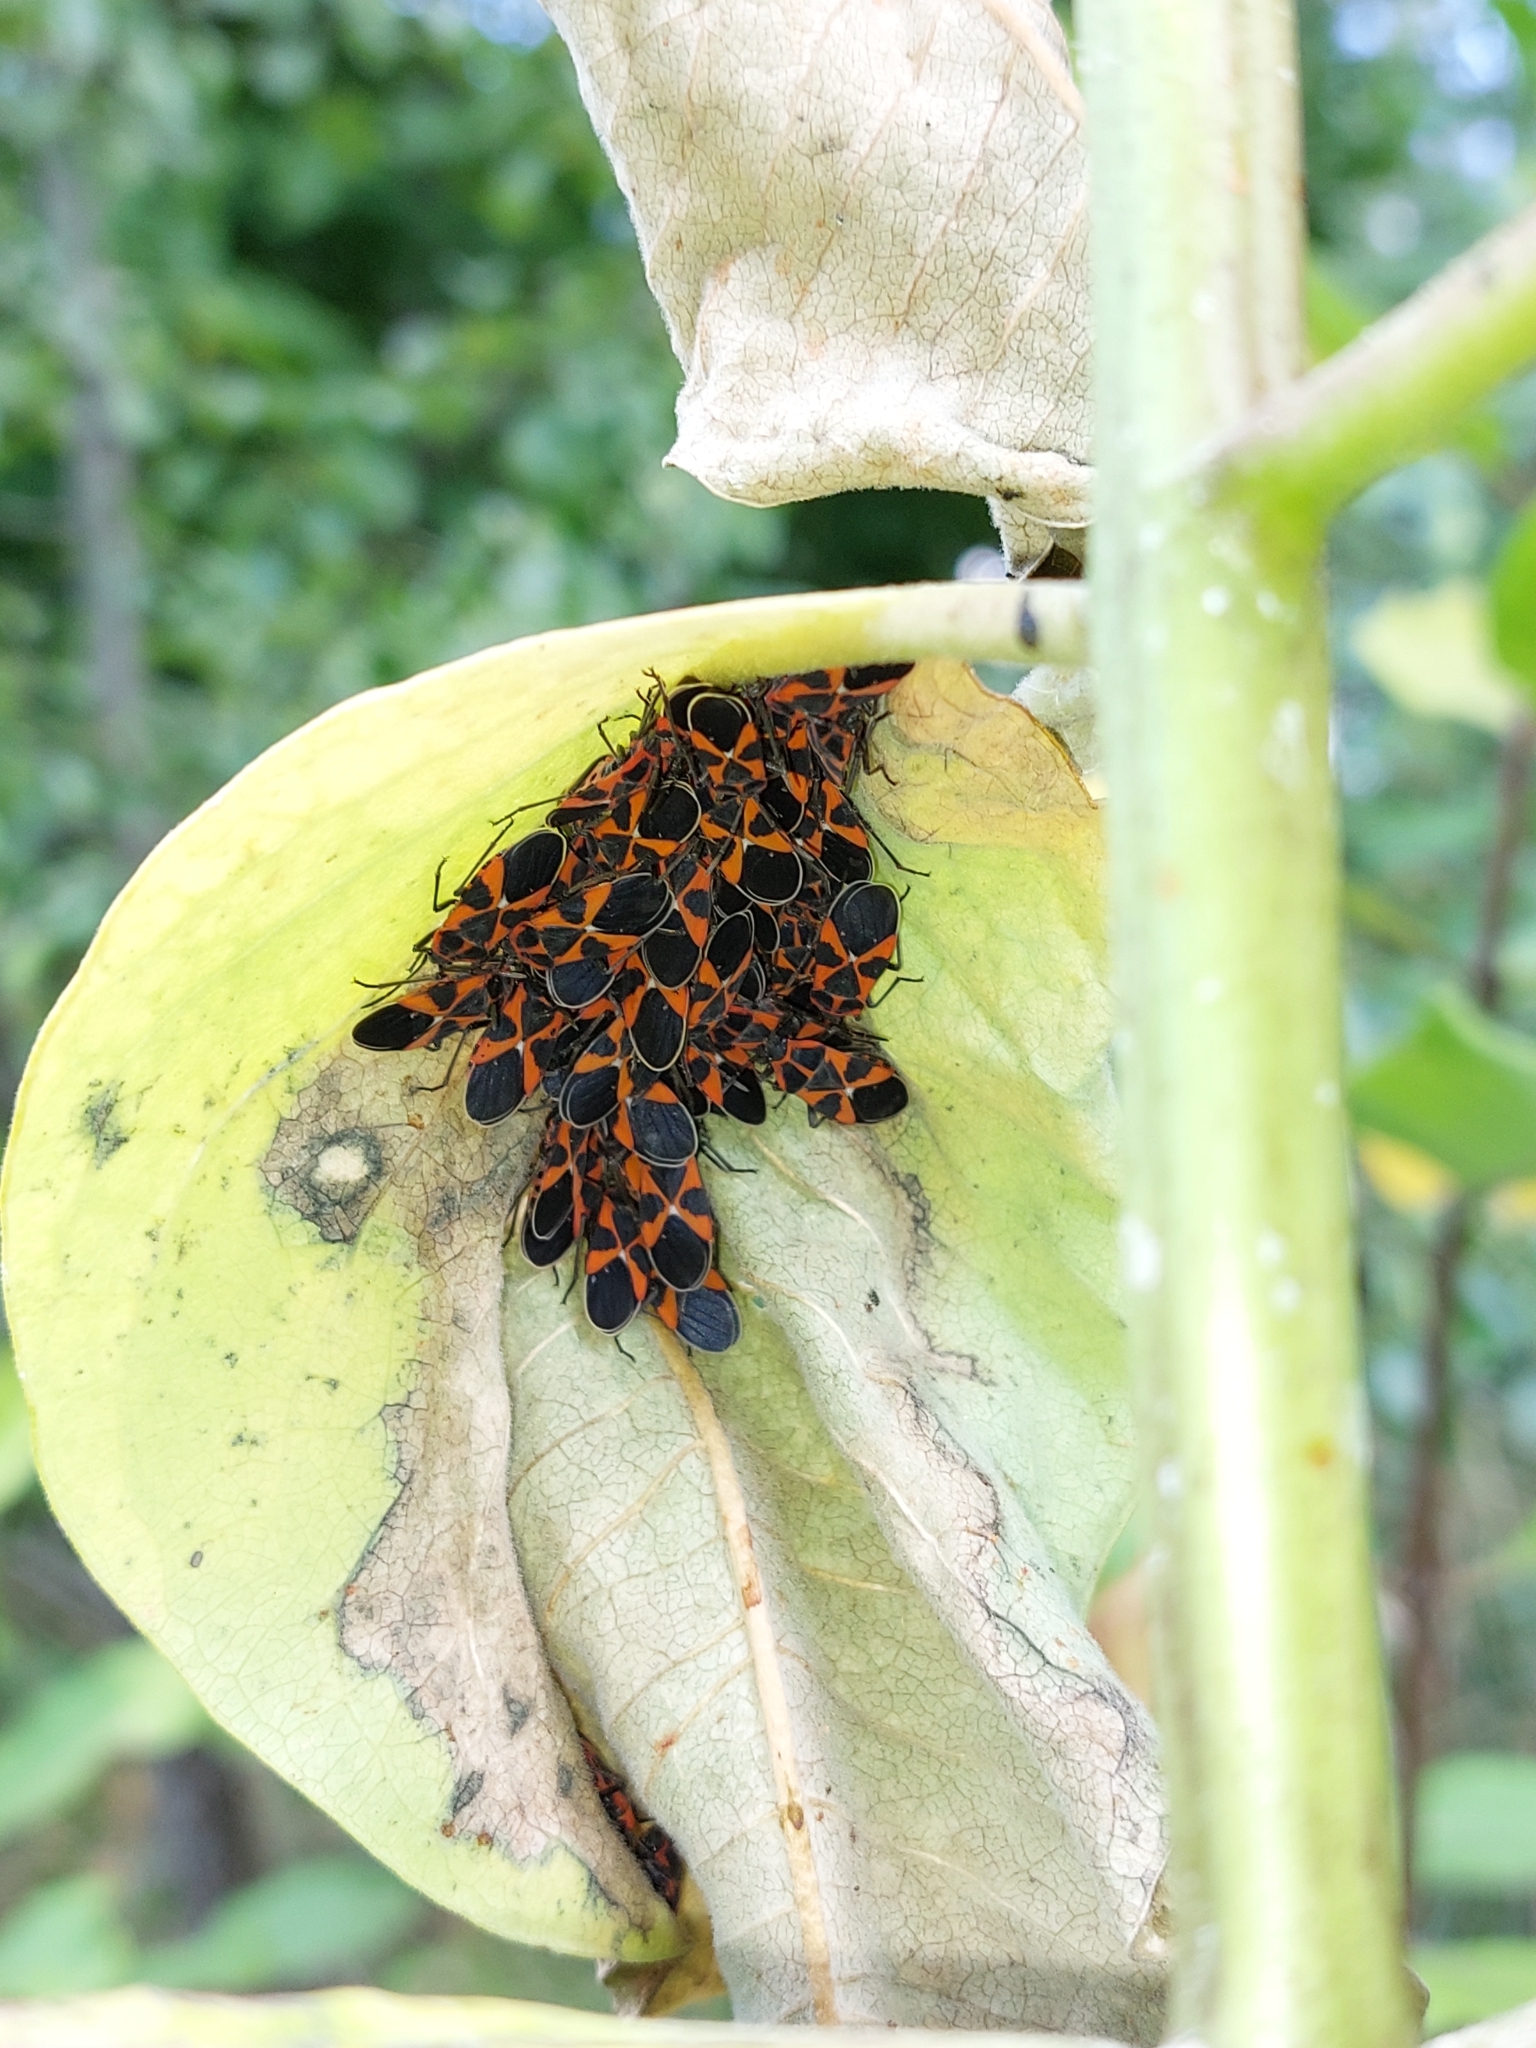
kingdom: Animalia
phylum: Arthropoda
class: Insecta
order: Hemiptera
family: Lygaeidae
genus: Tropidothorax
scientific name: Tropidothorax leucopterus
